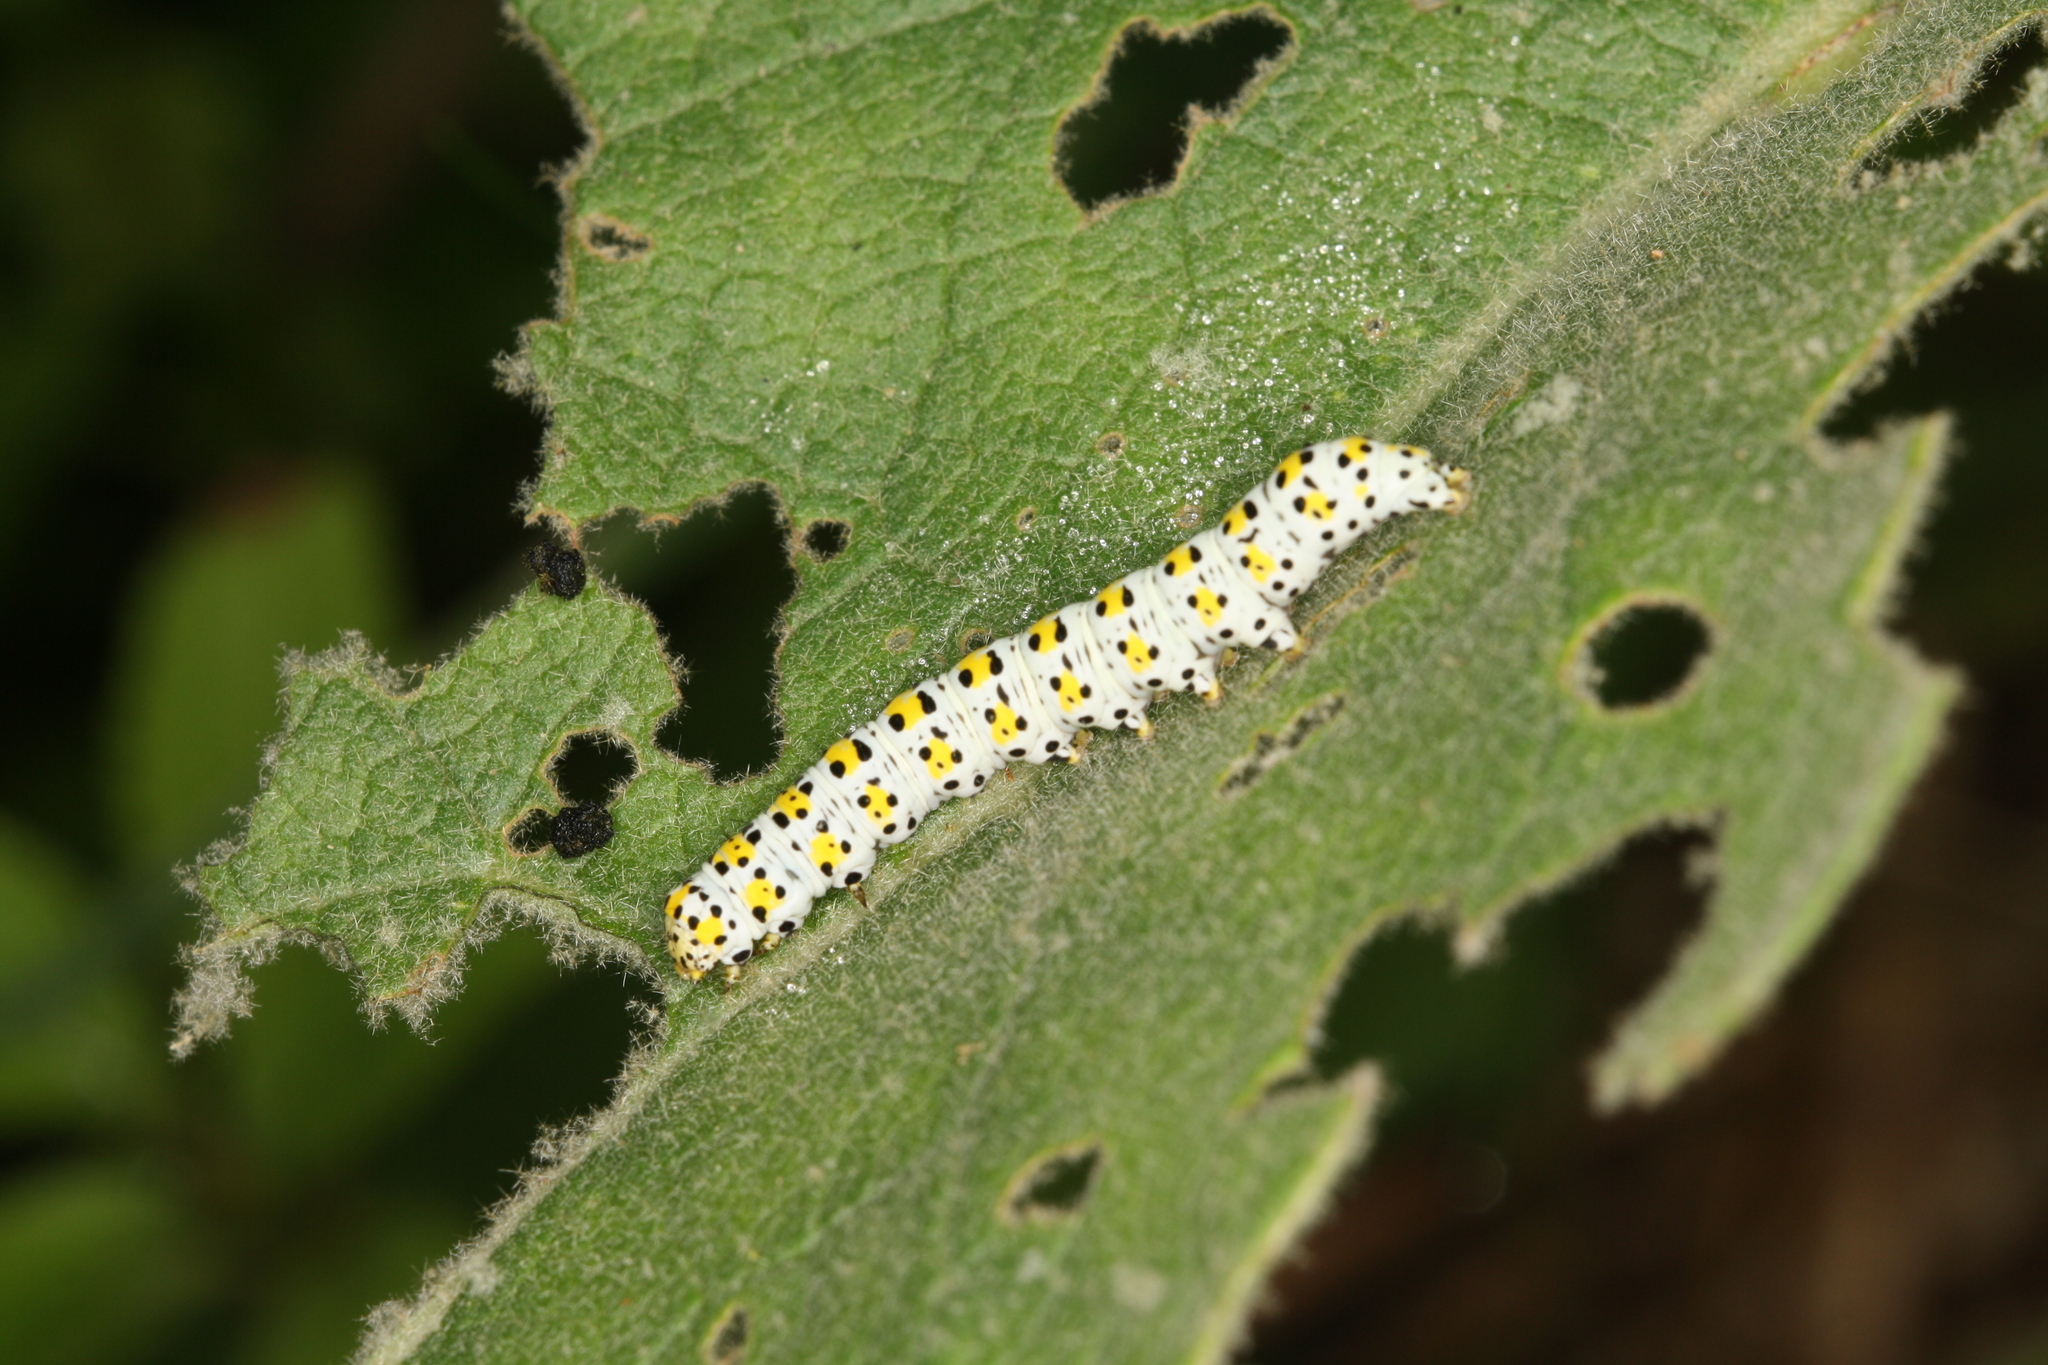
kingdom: Animalia
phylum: Arthropoda
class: Insecta
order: Lepidoptera
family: Noctuidae
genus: Cucullia
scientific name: Cucullia verbasci
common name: Mullein
